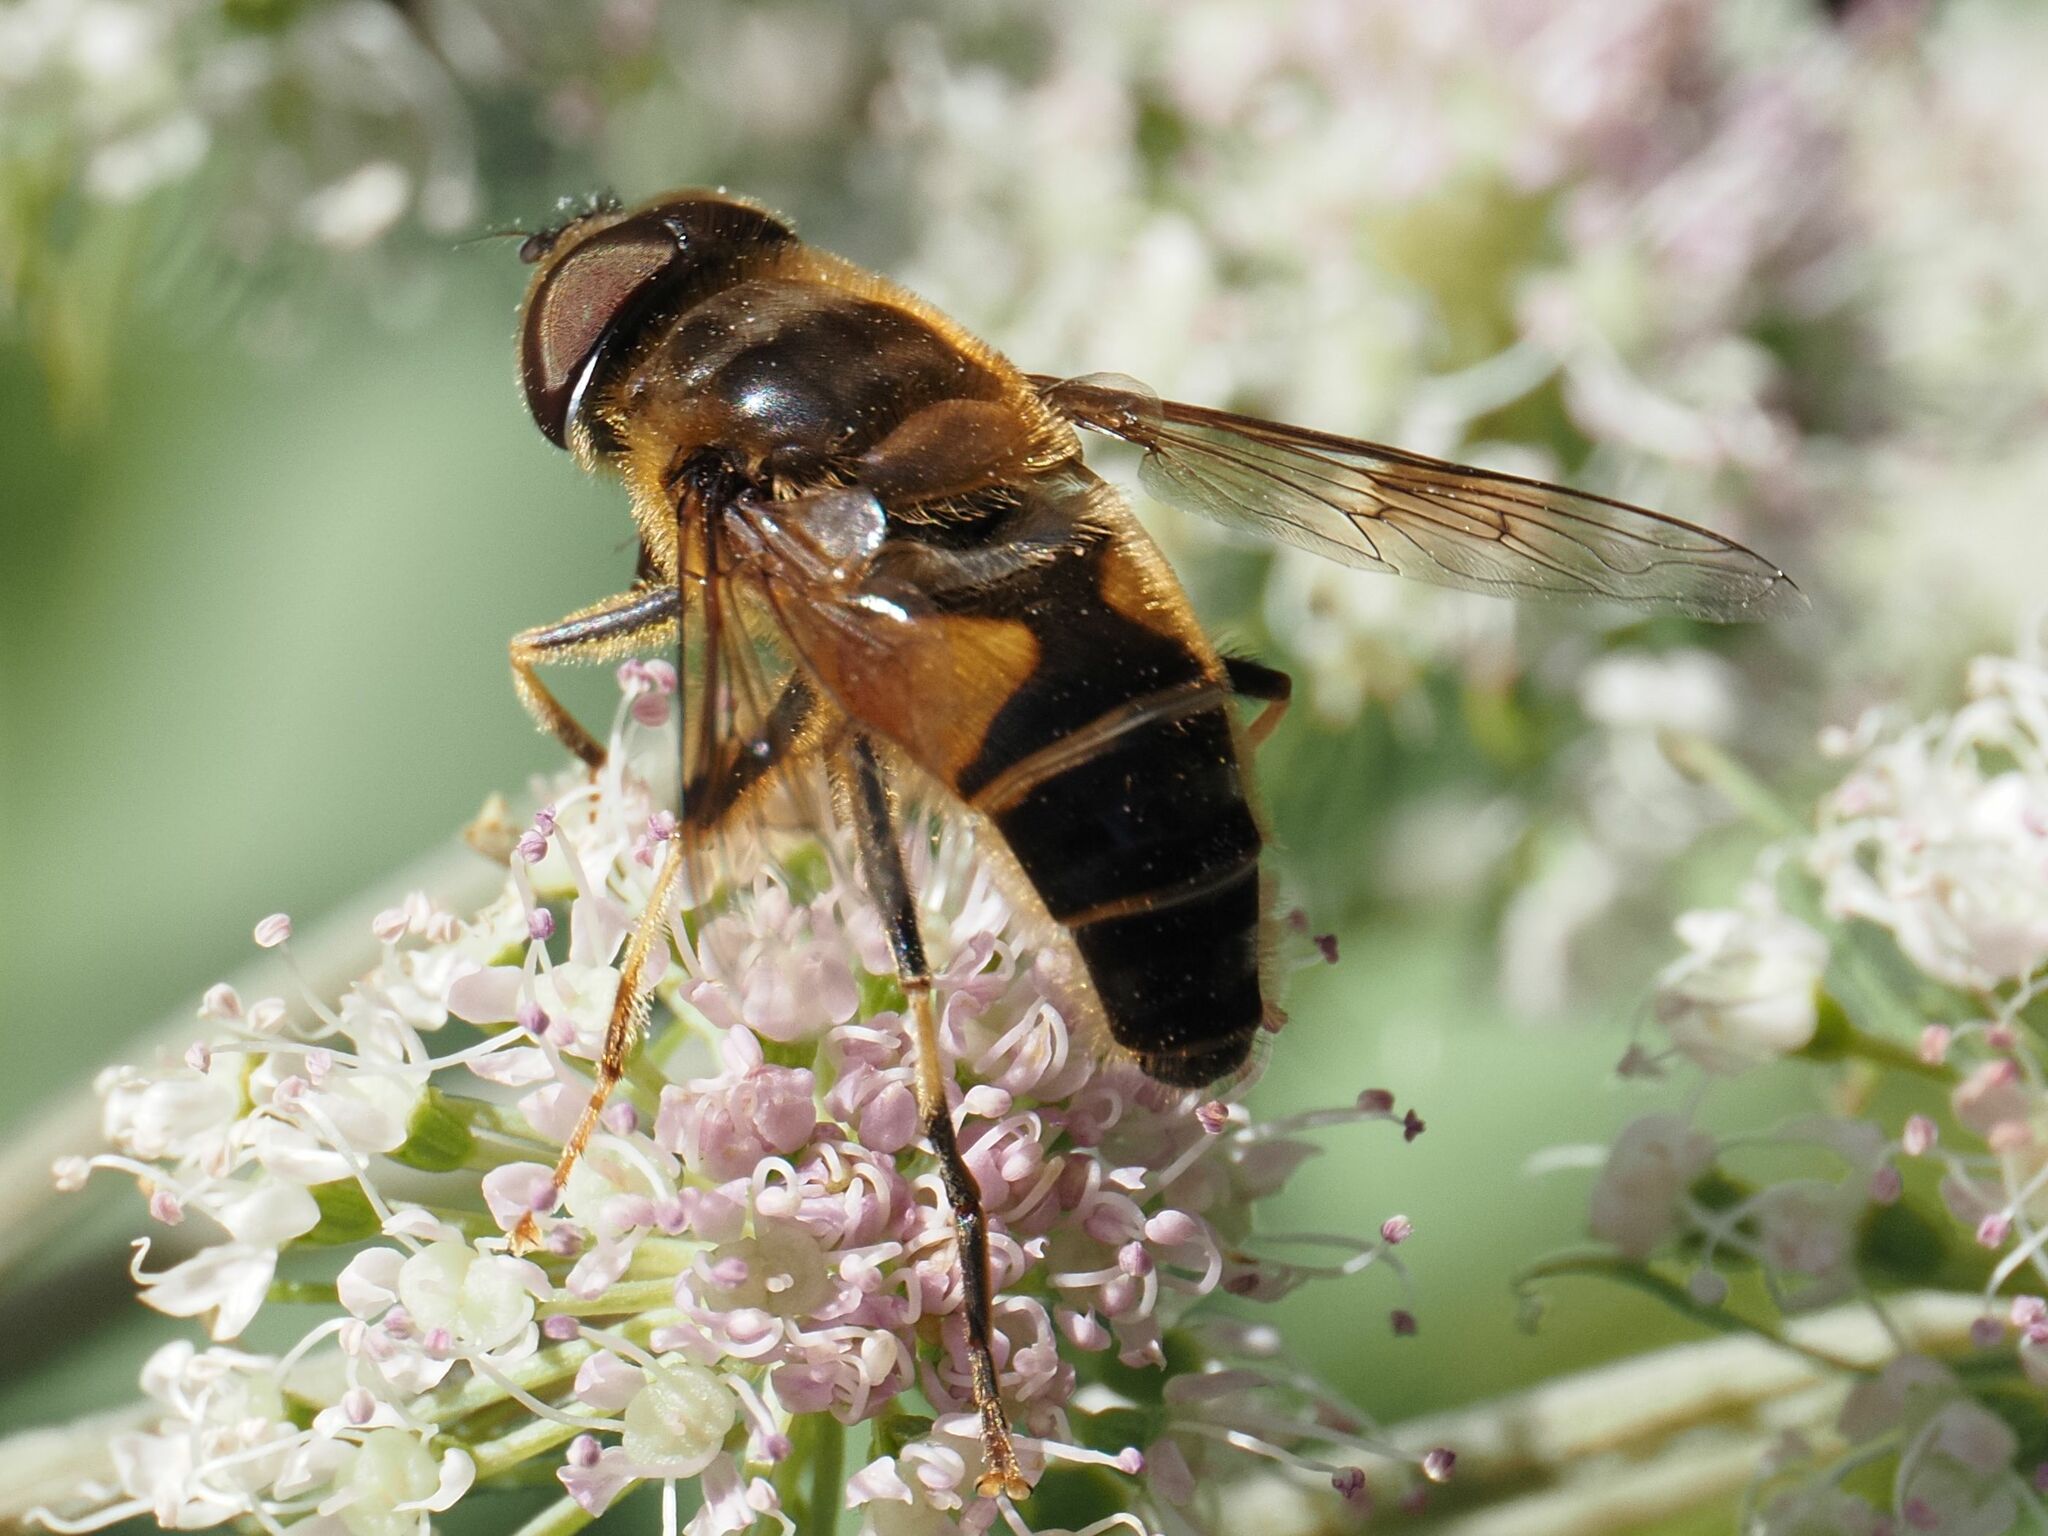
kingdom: Animalia
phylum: Arthropoda
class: Insecta
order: Diptera
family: Syrphidae
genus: Eristalis
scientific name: Eristalis pertinax
